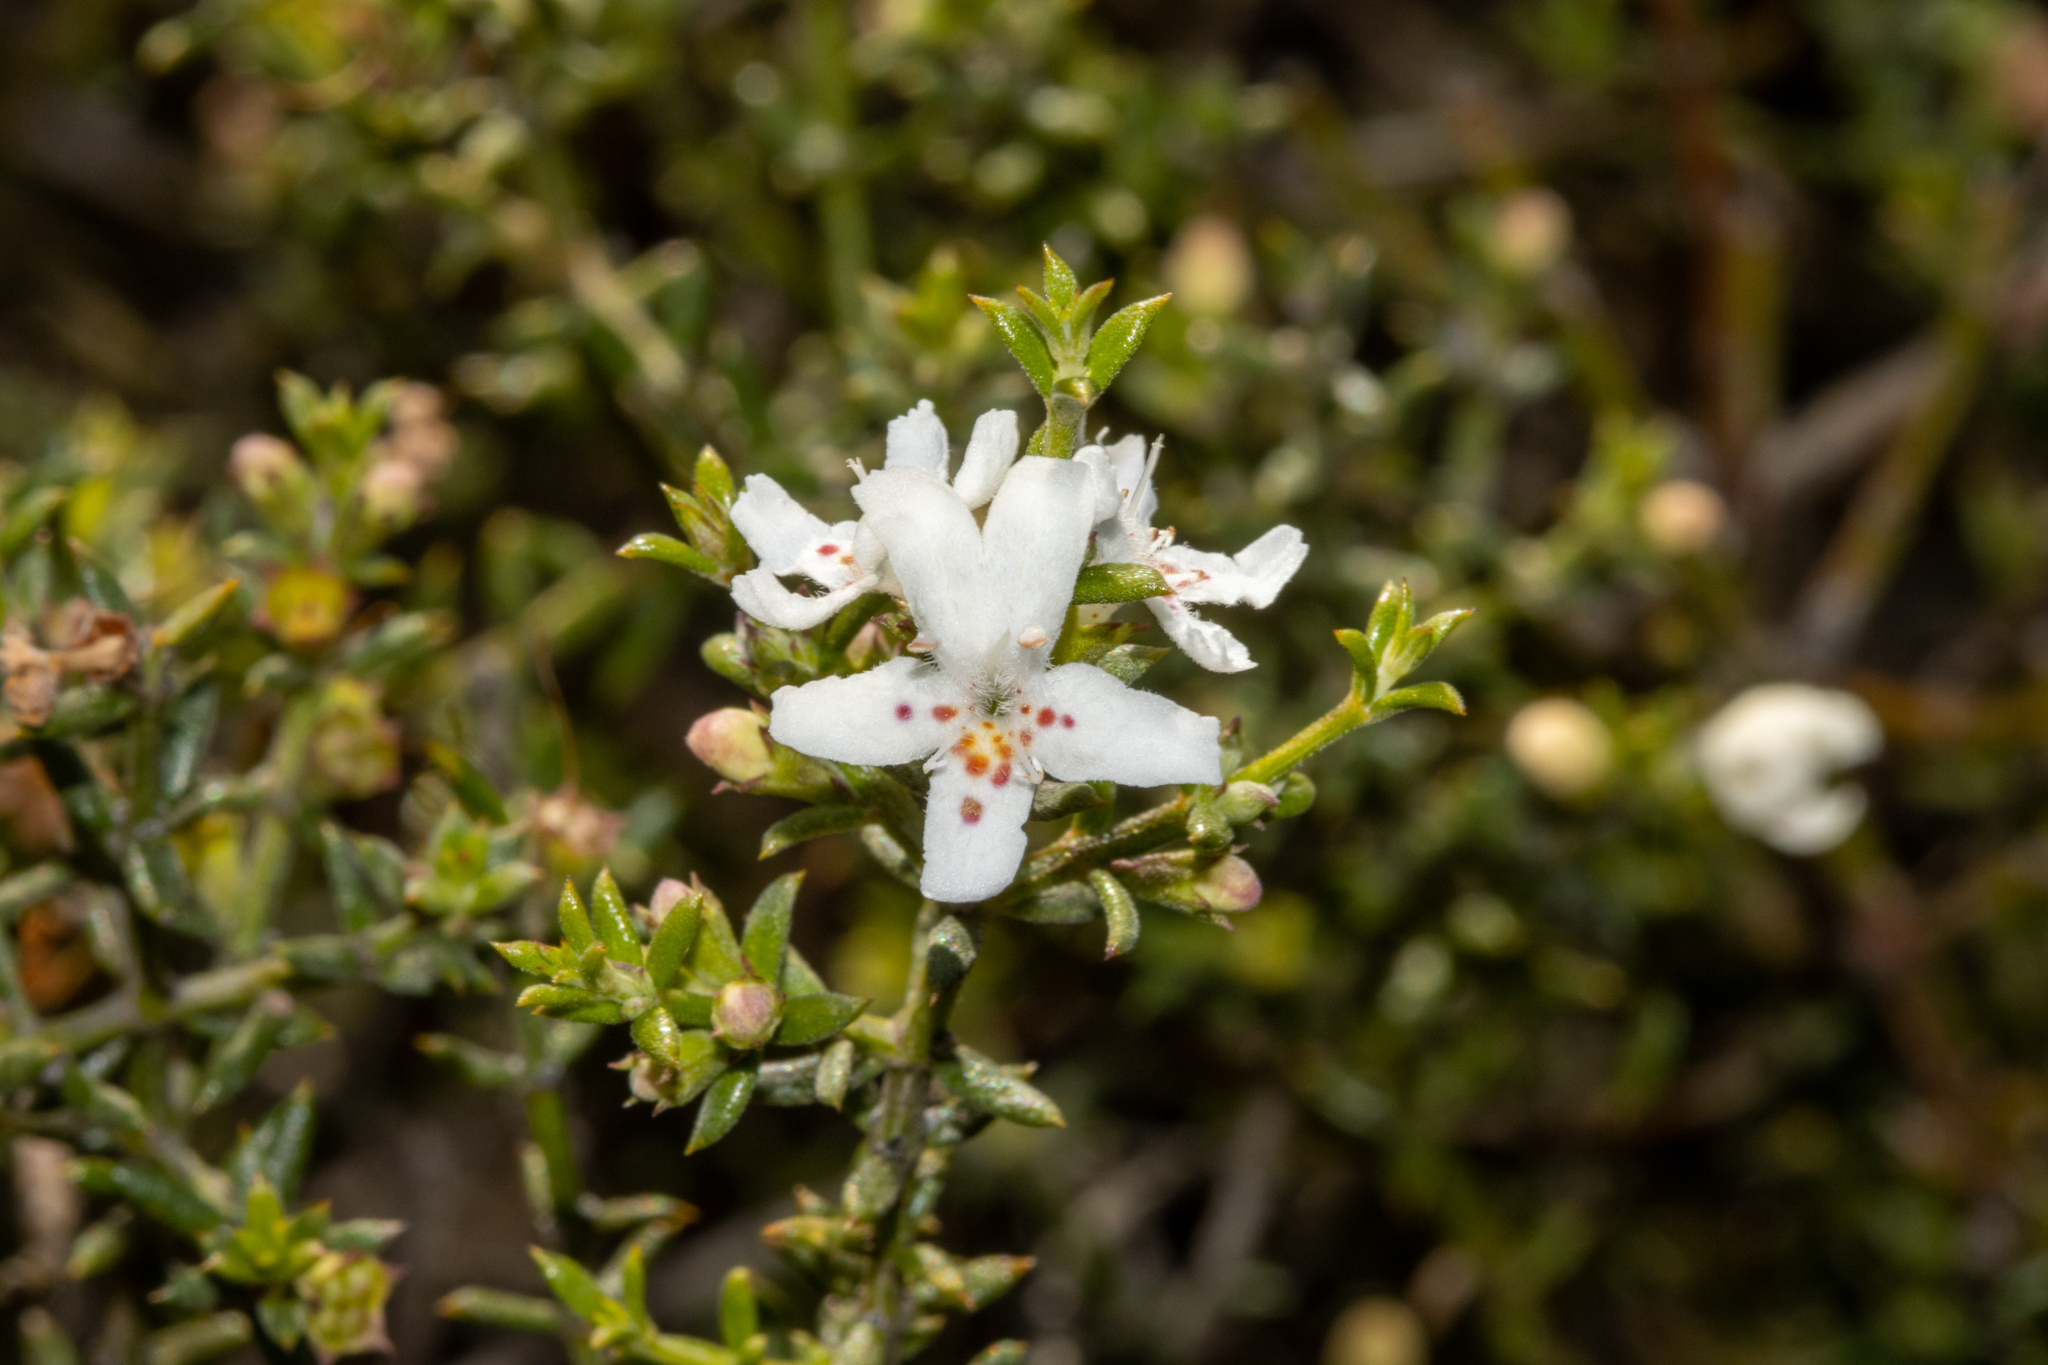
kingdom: Plantae
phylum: Tracheophyta
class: Magnoliopsida
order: Lamiales
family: Lamiaceae
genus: Westringia
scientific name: Westringia rigida
